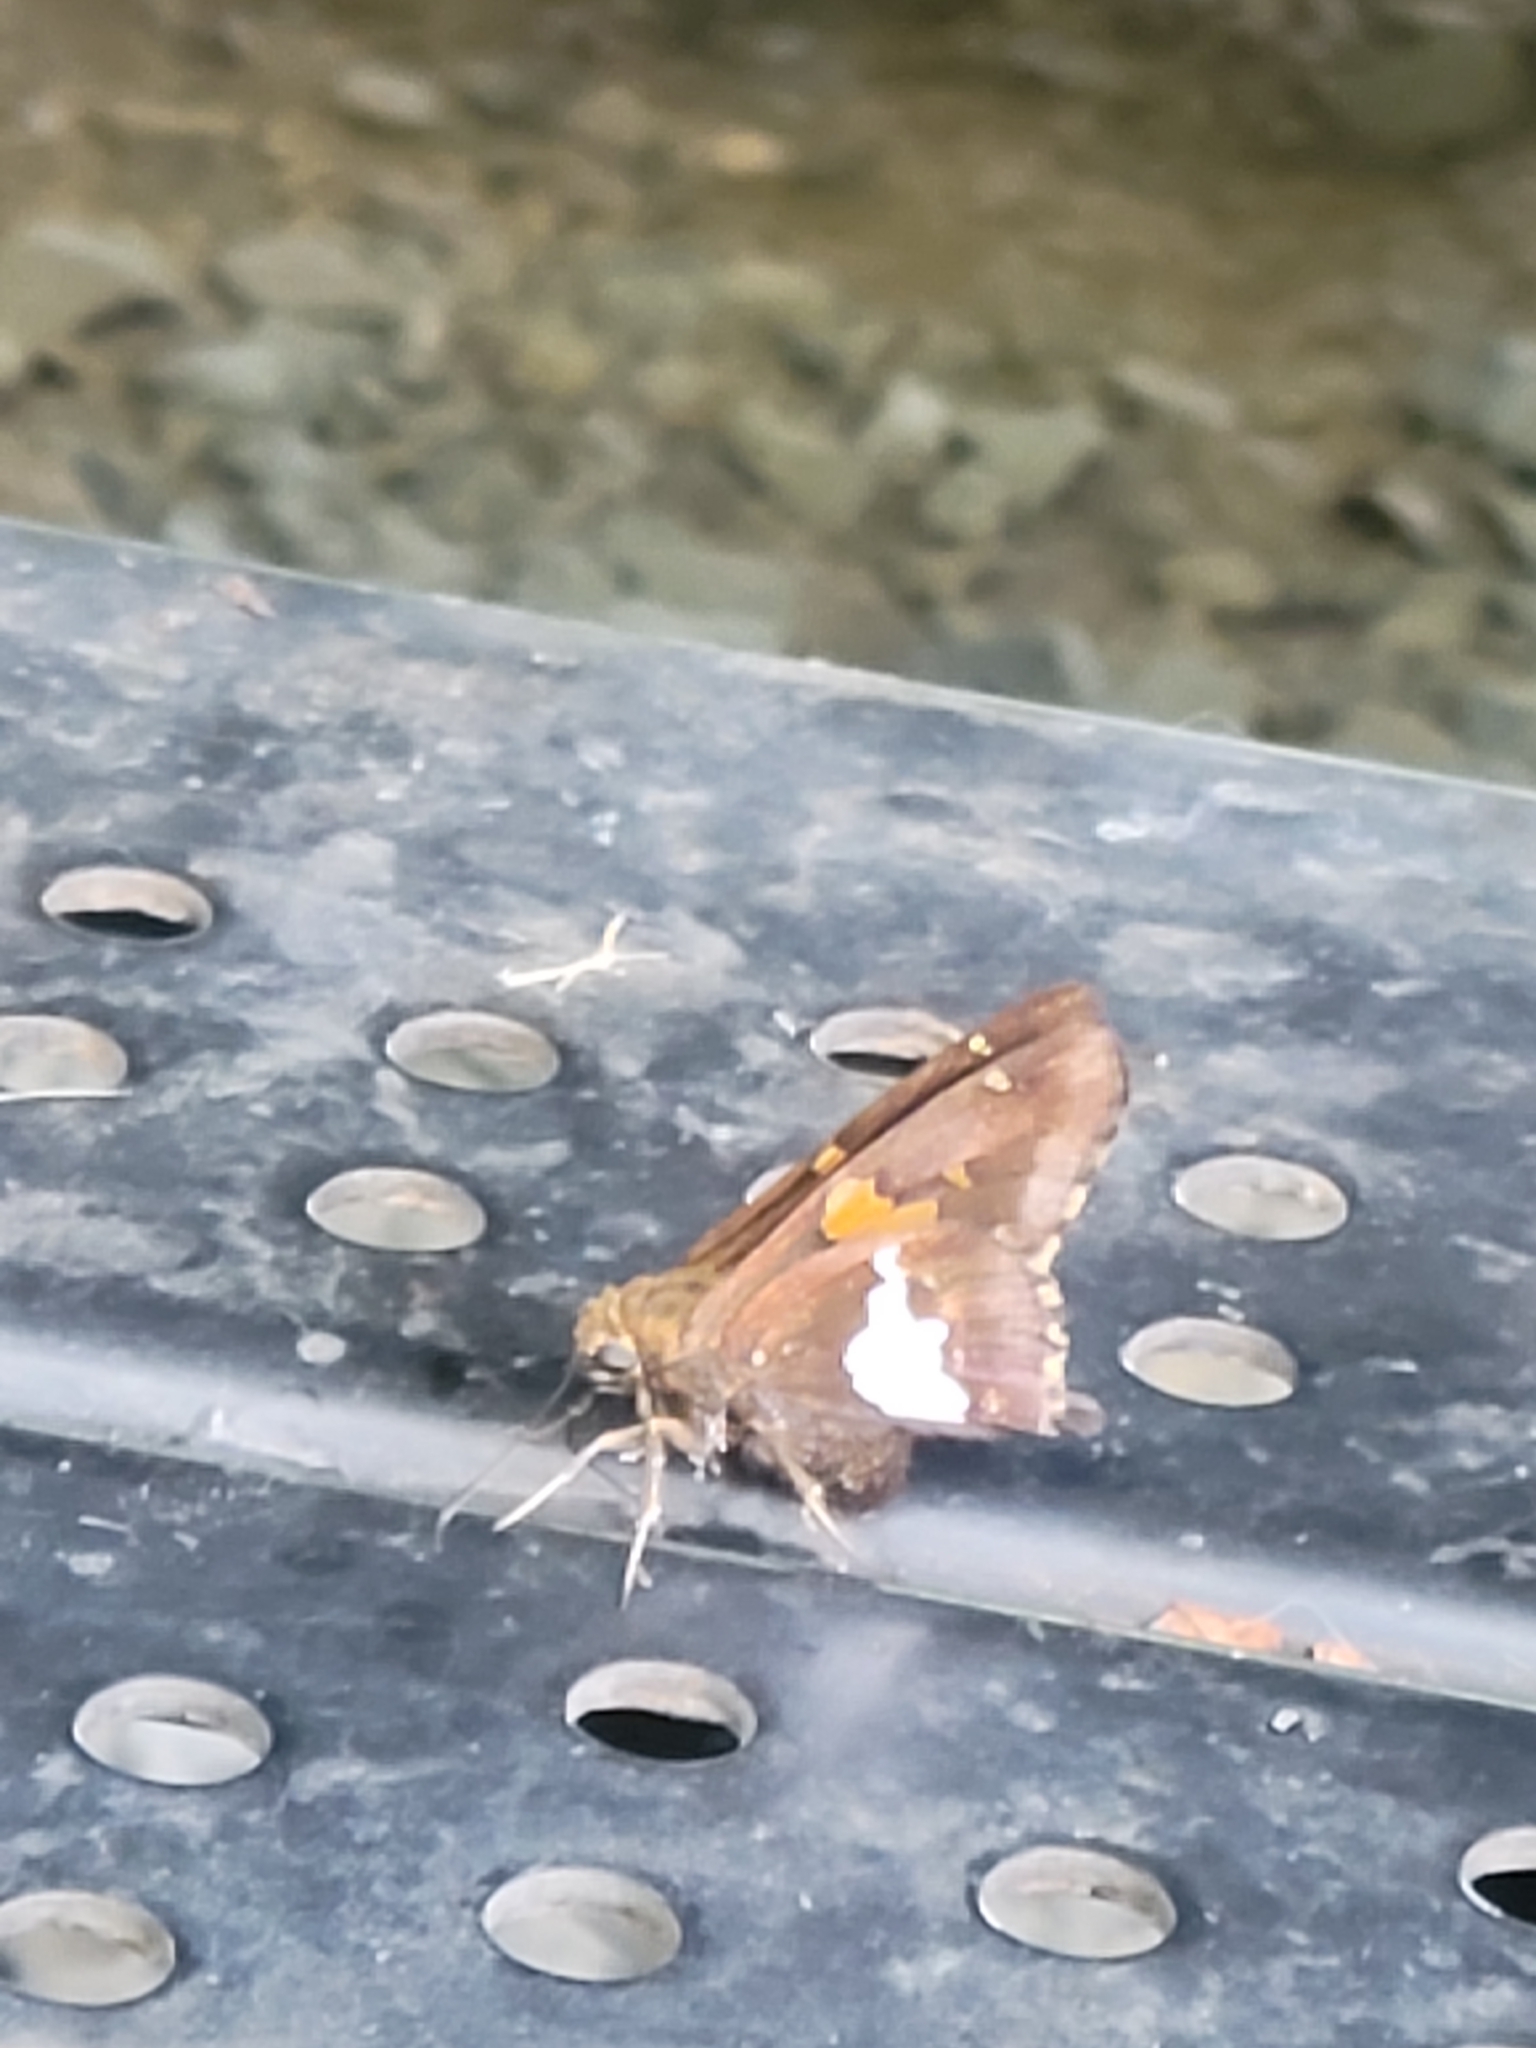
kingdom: Animalia
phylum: Arthropoda
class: Insecta
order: Lepidoptera
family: Hesperiidae
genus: Epargyreus
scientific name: Epargyreus clarus
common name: Silver-spotted skipper
